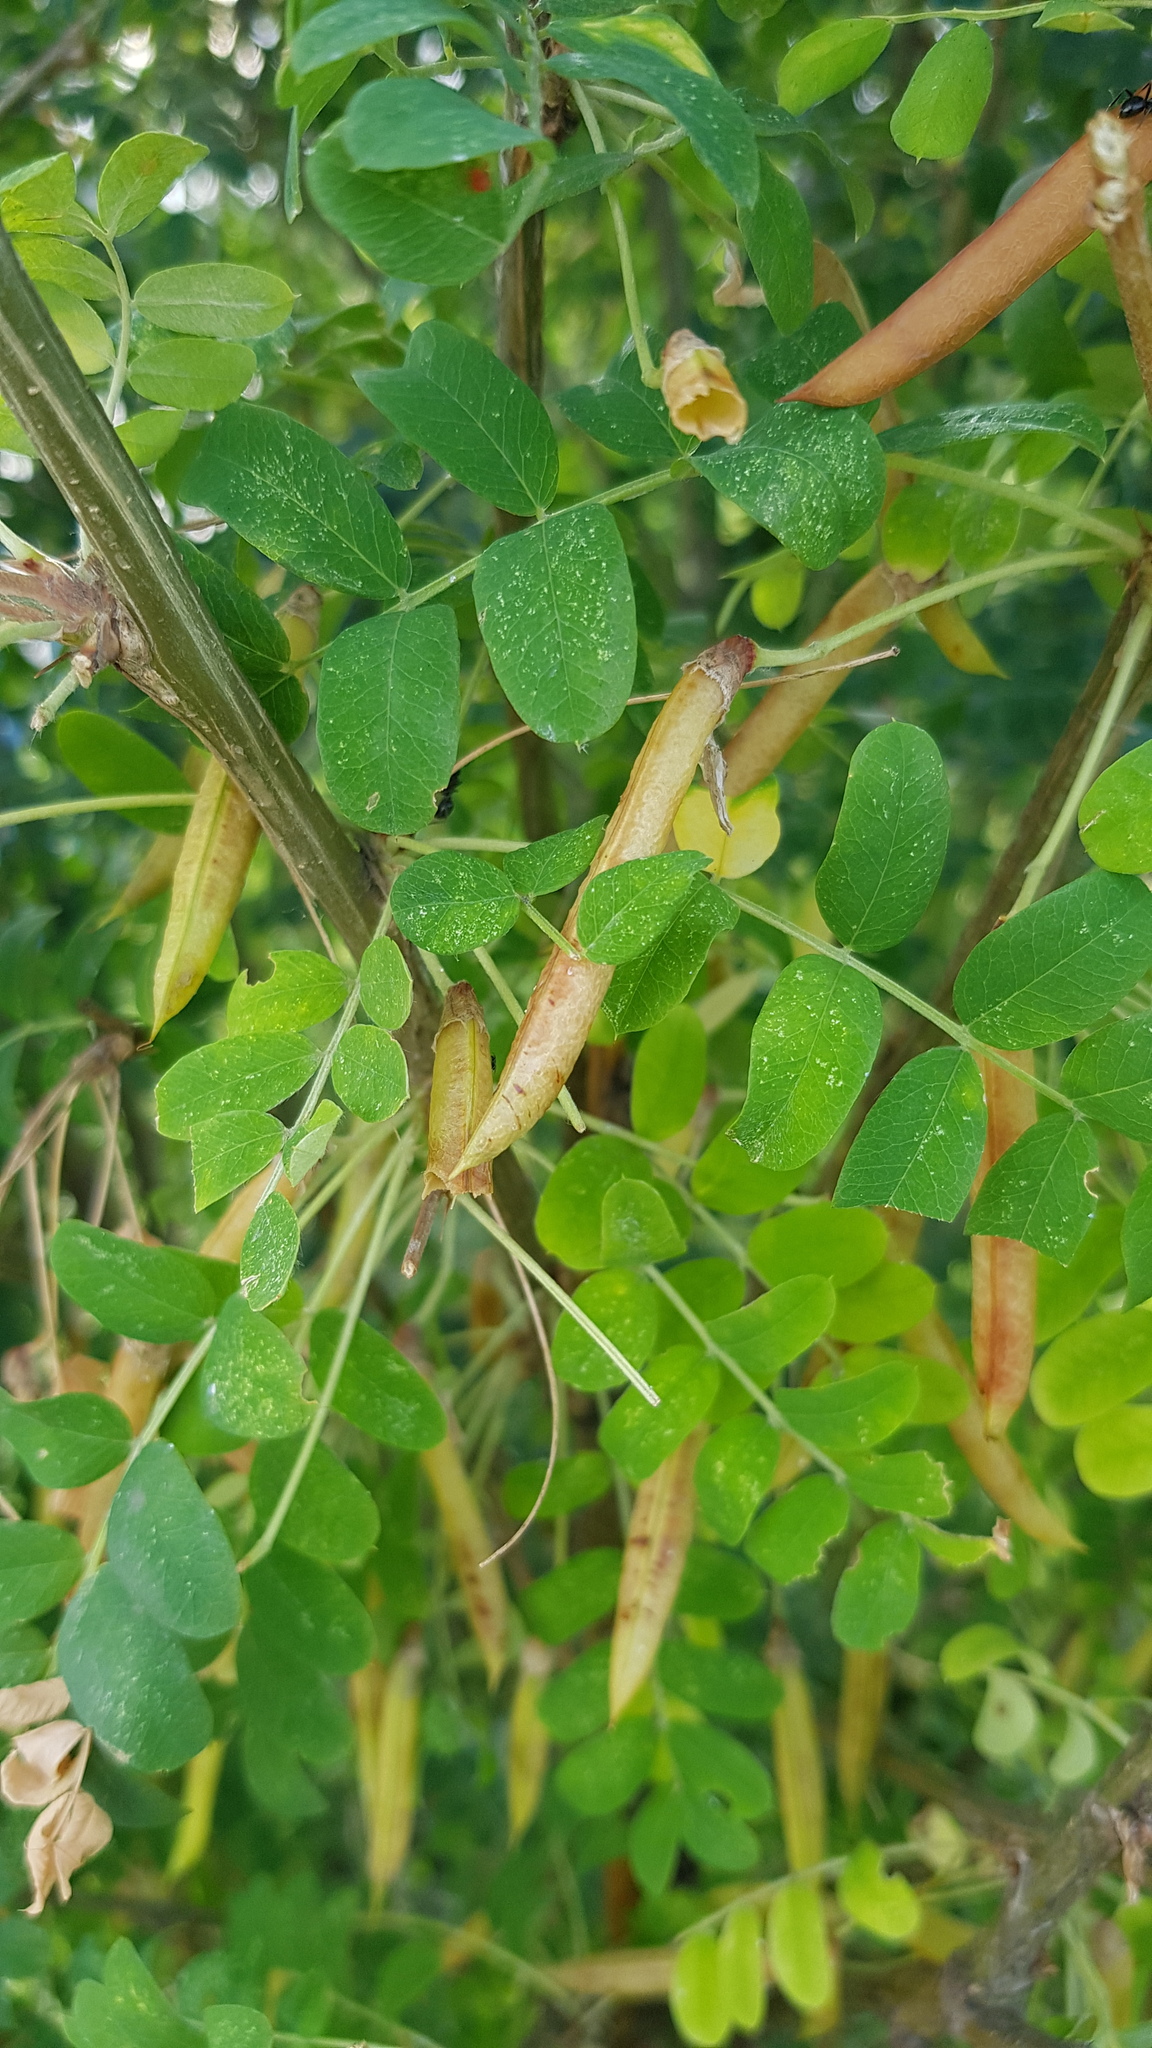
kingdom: Plantae
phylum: Tracheophyta
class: Magnoliopsida
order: Fabales
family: Fabaceae
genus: Caragana
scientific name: Caragana arborescens
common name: Siberian peashrub
